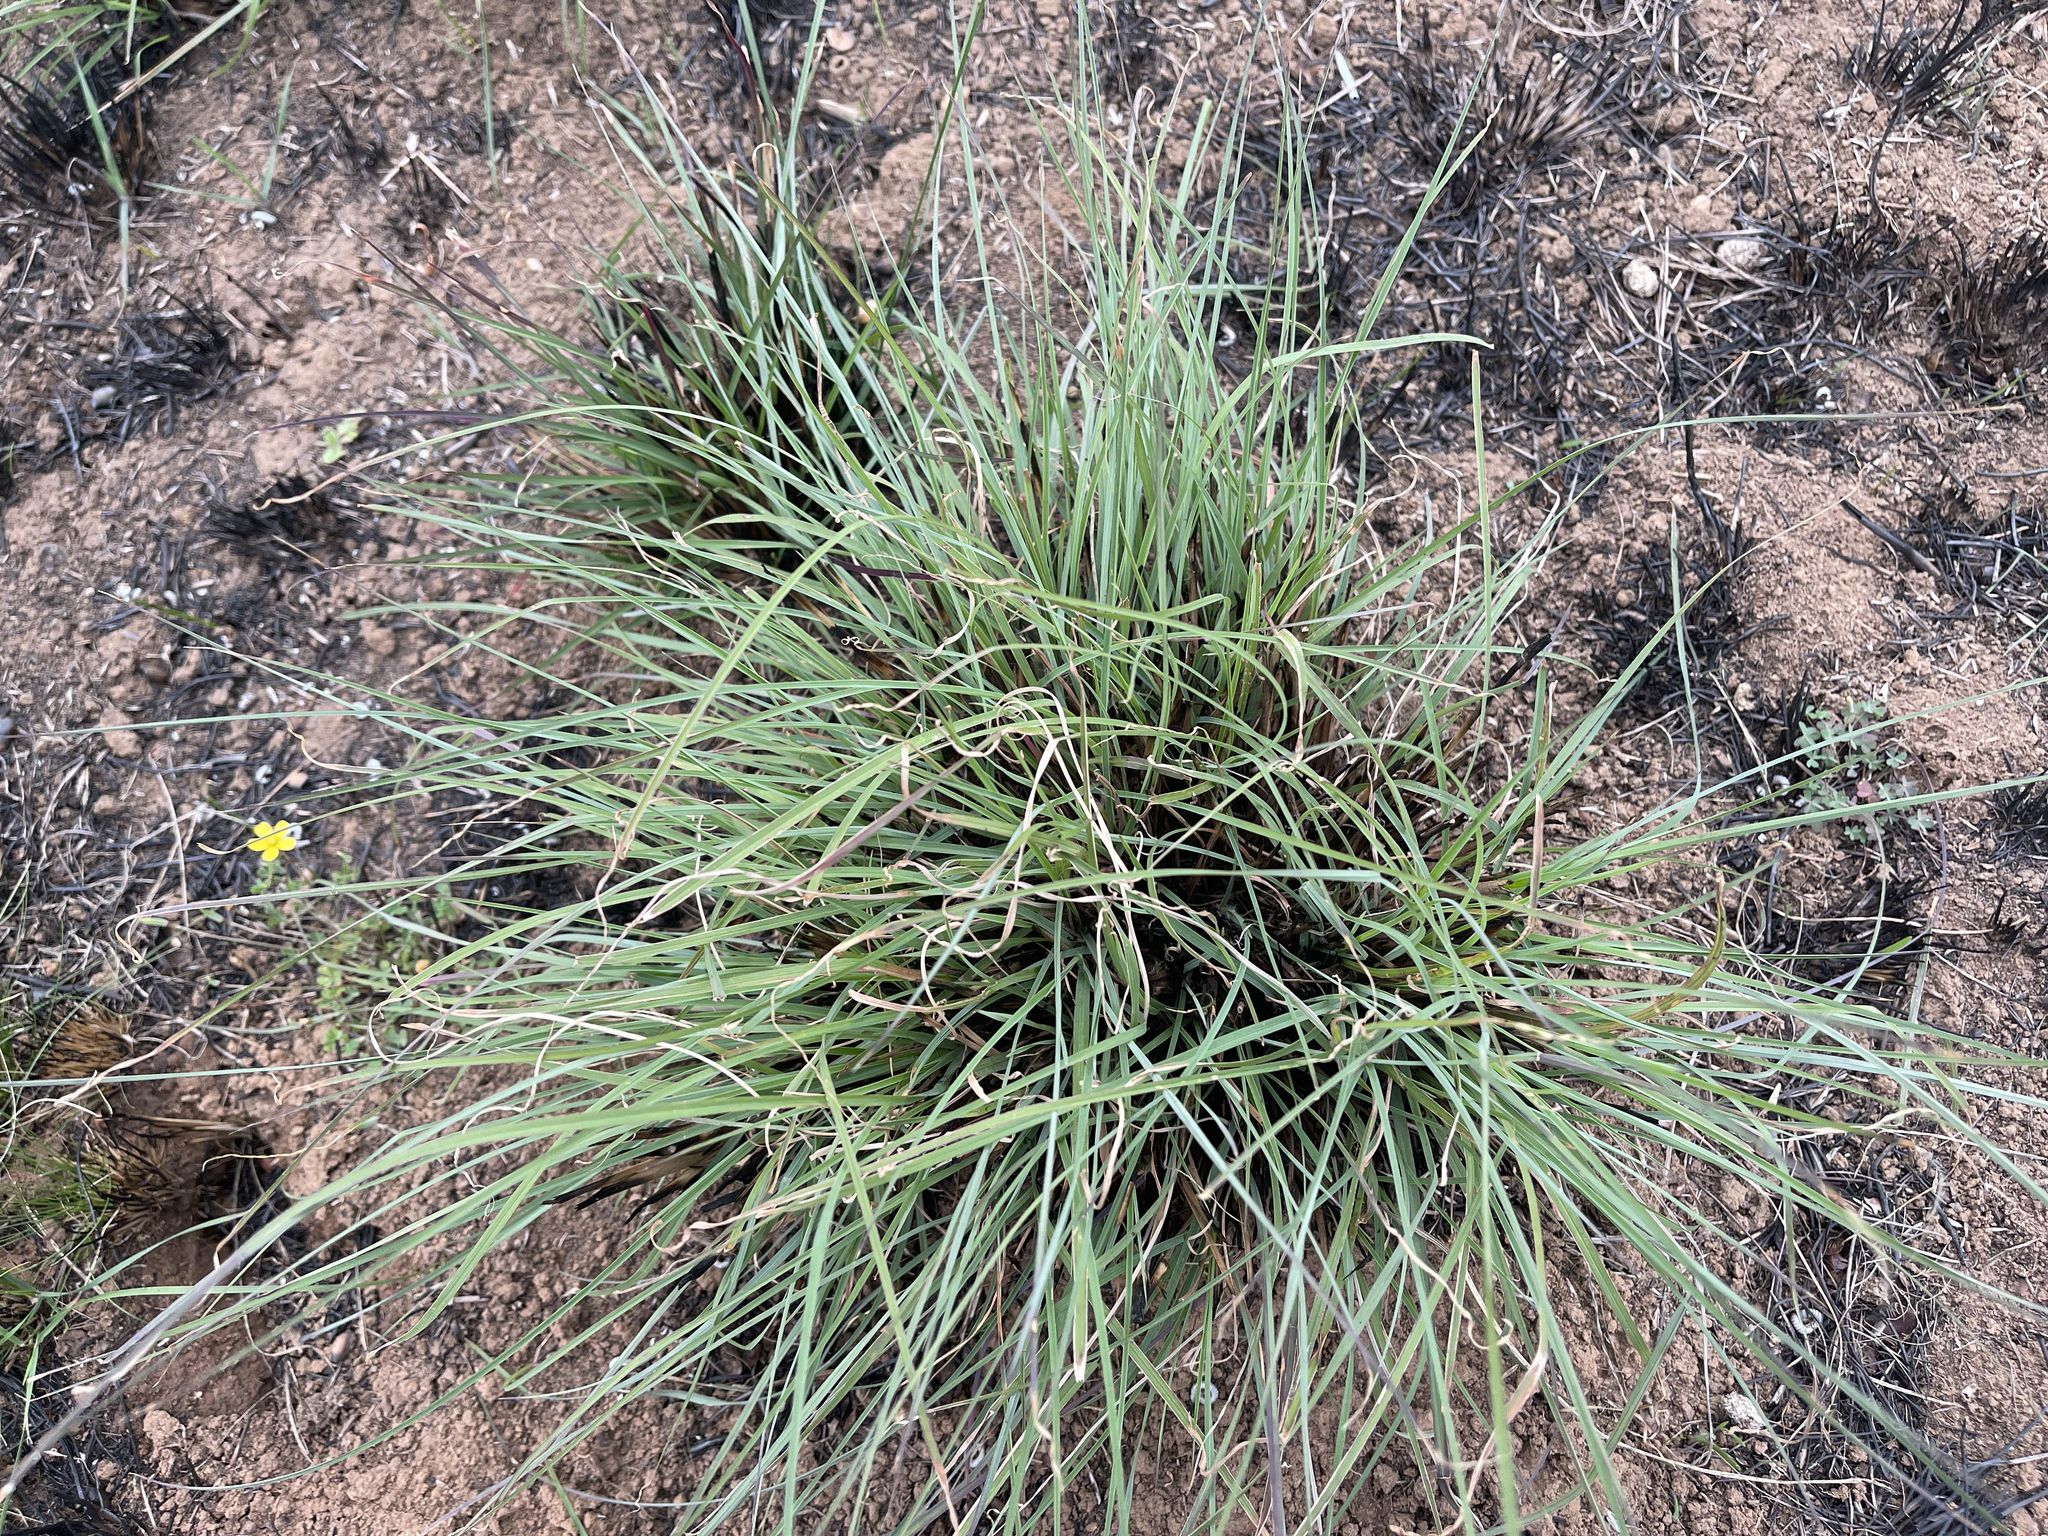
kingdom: Plantae
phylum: Tracheophyta
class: Liliopsida
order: Poales
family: Poaceae
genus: Themeda
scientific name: Themeda triandra
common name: Kangaroo grass
